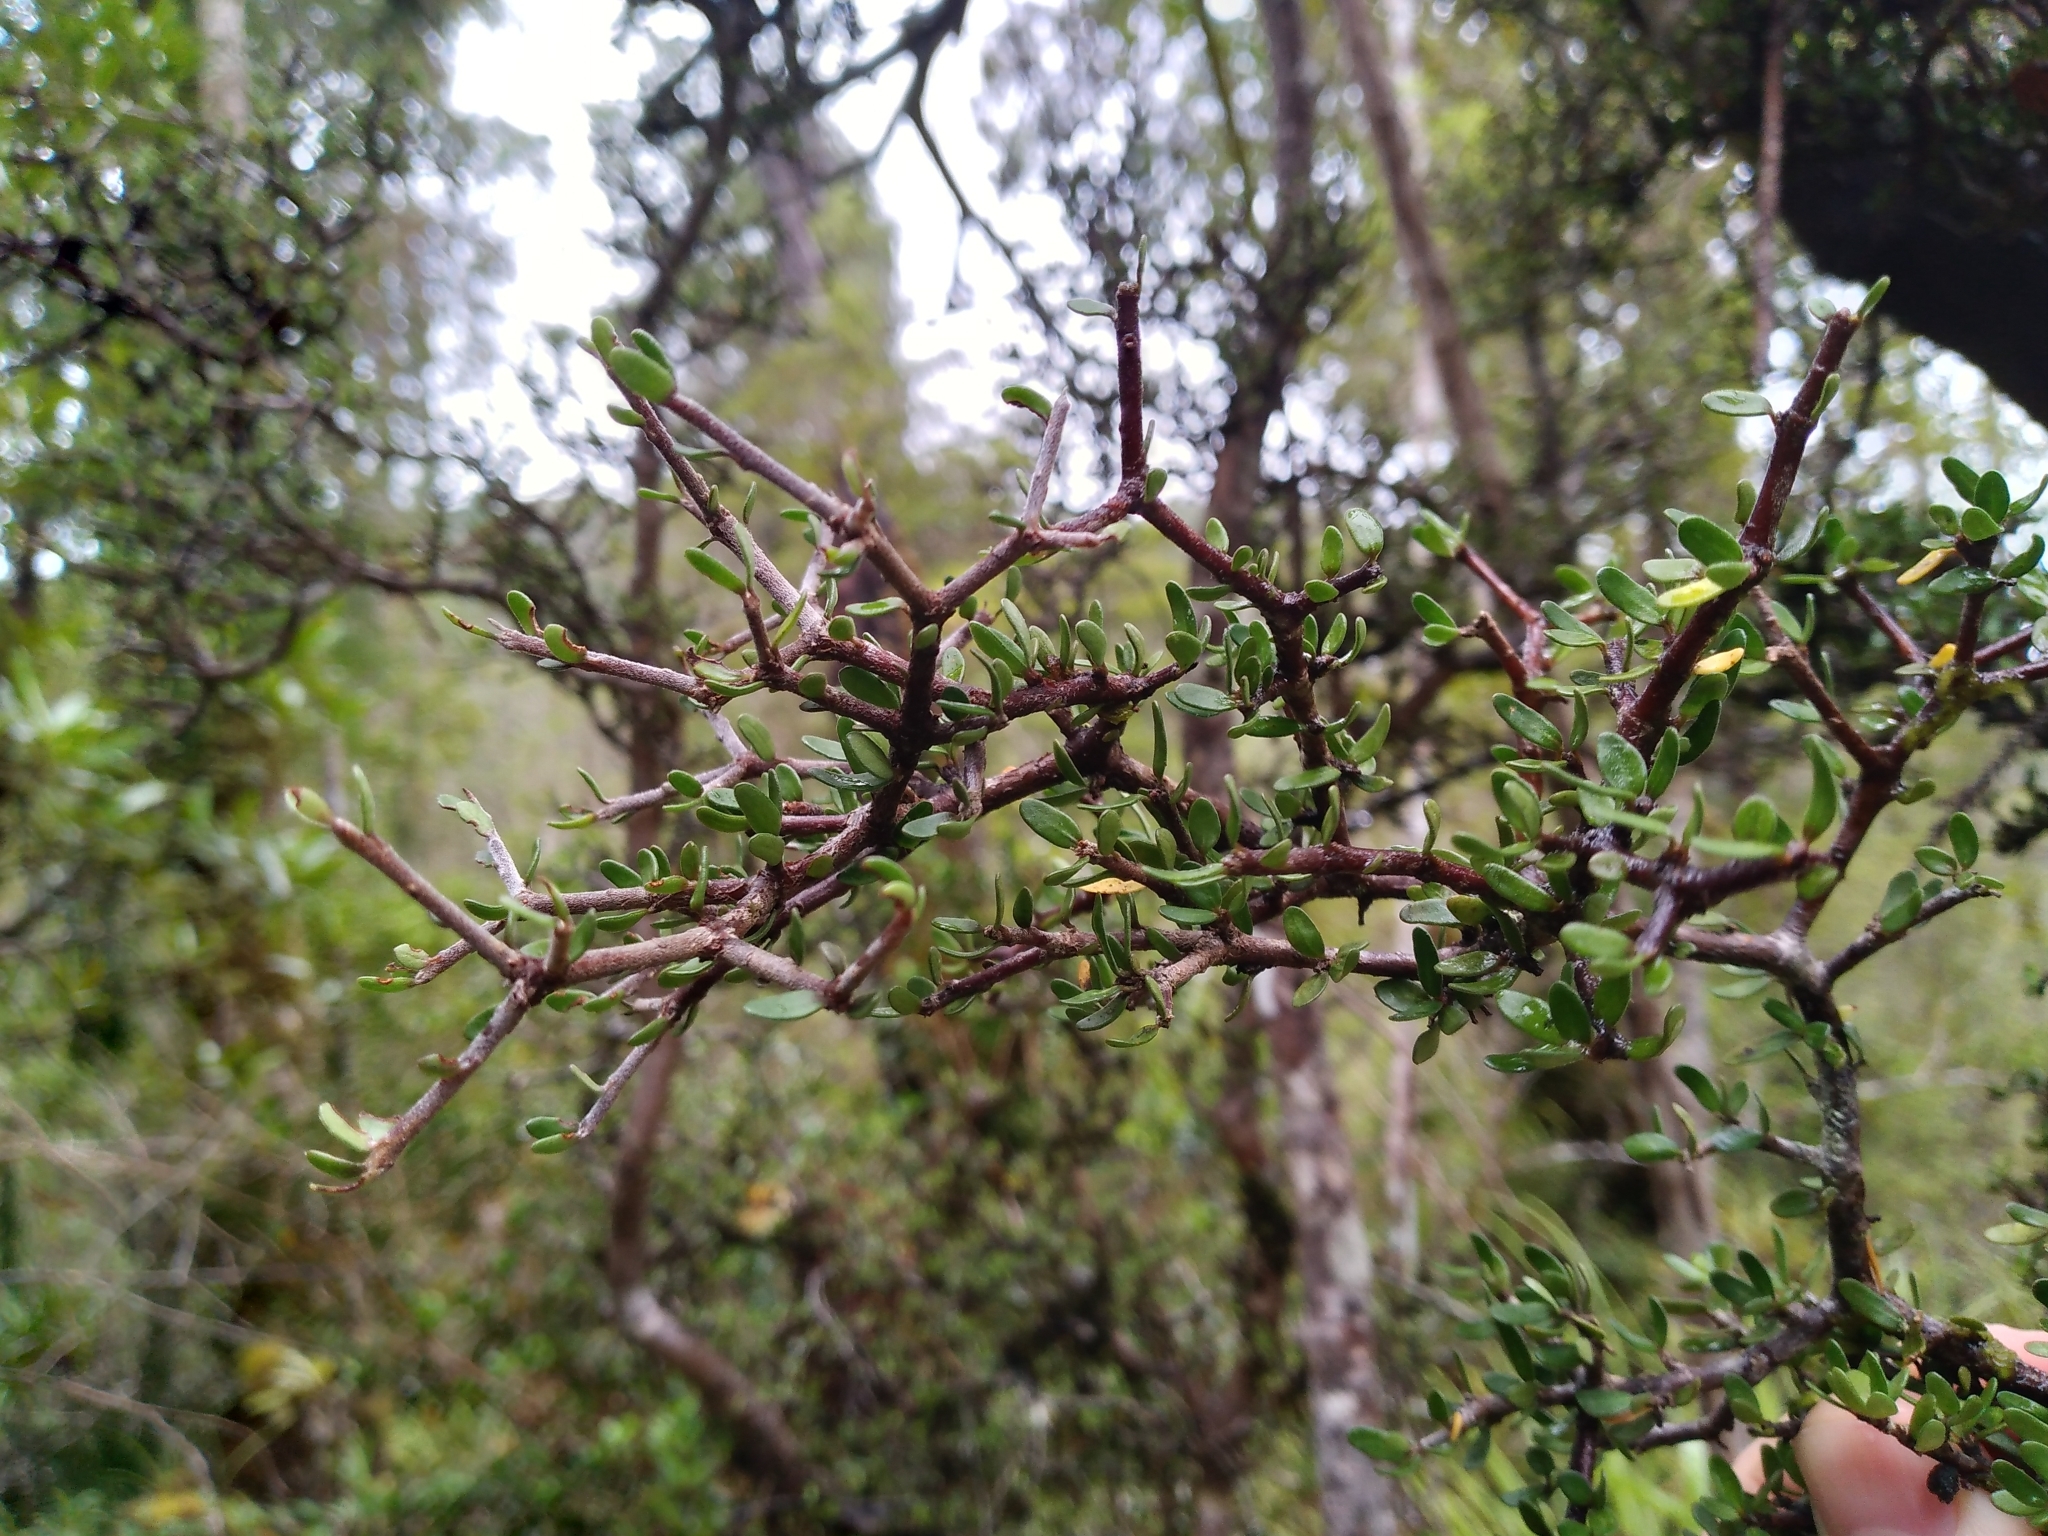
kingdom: Plantae
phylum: Tracheophyta
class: Magnoliopsida
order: Apiales
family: Pittosporaceae
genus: Pittosporum
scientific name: Pittosporum rigidum
